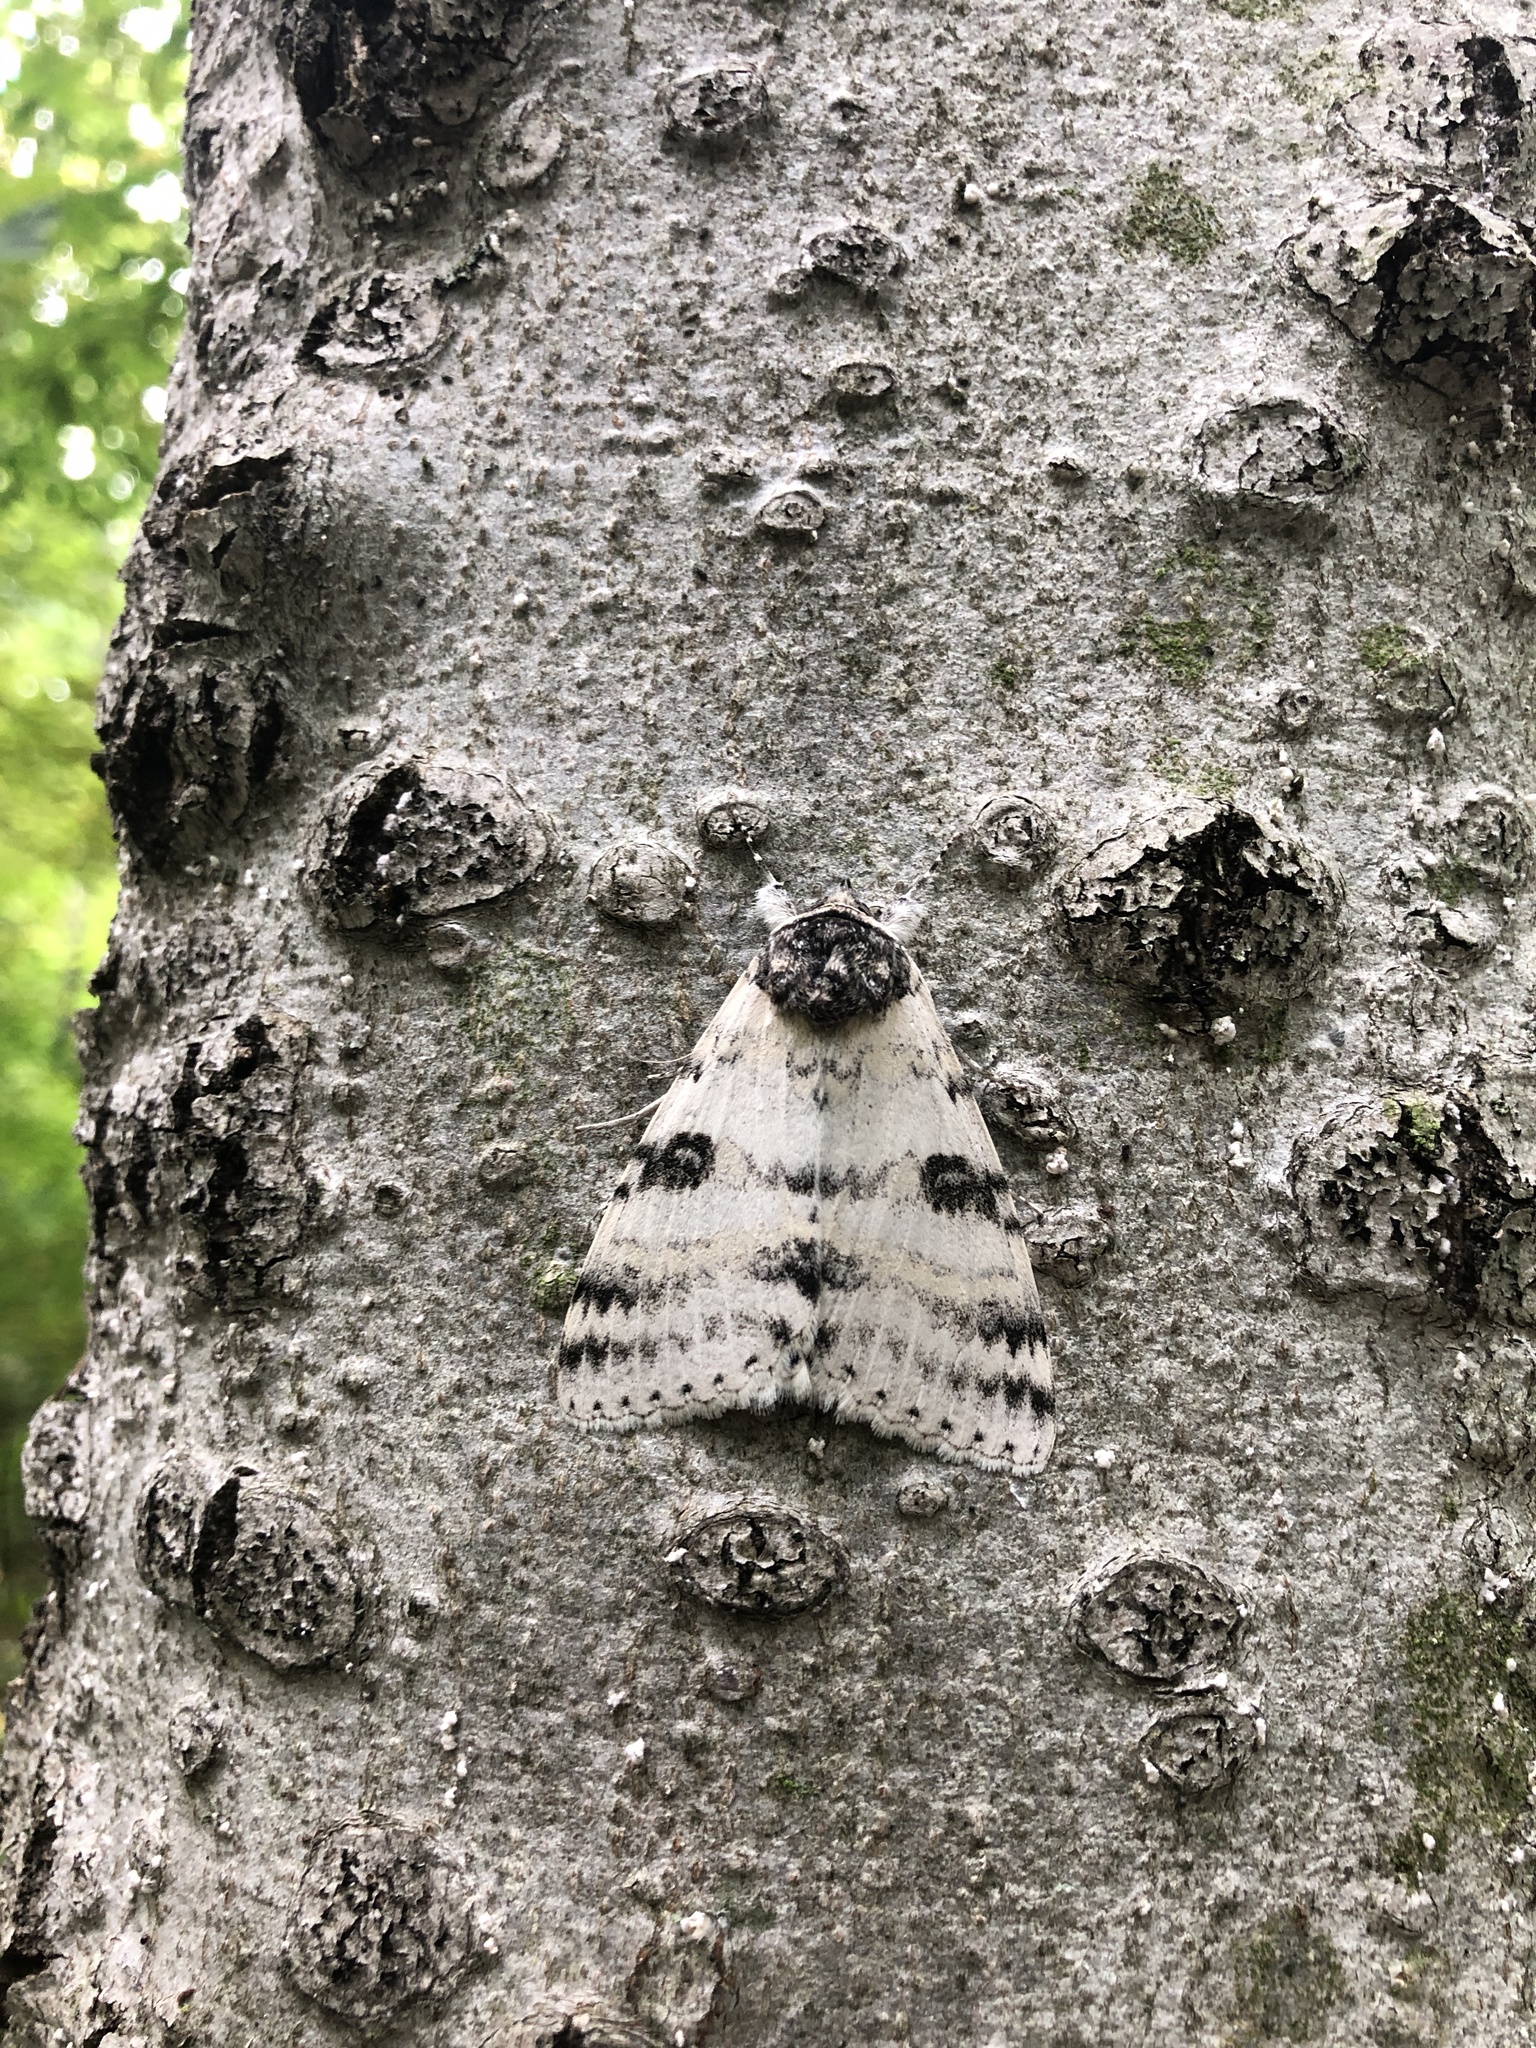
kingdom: Animalia
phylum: Arthropoda
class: Insecta
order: Lepidoptera
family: Erebidae
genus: Catocala
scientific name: Catocala relicta
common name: White underwing
